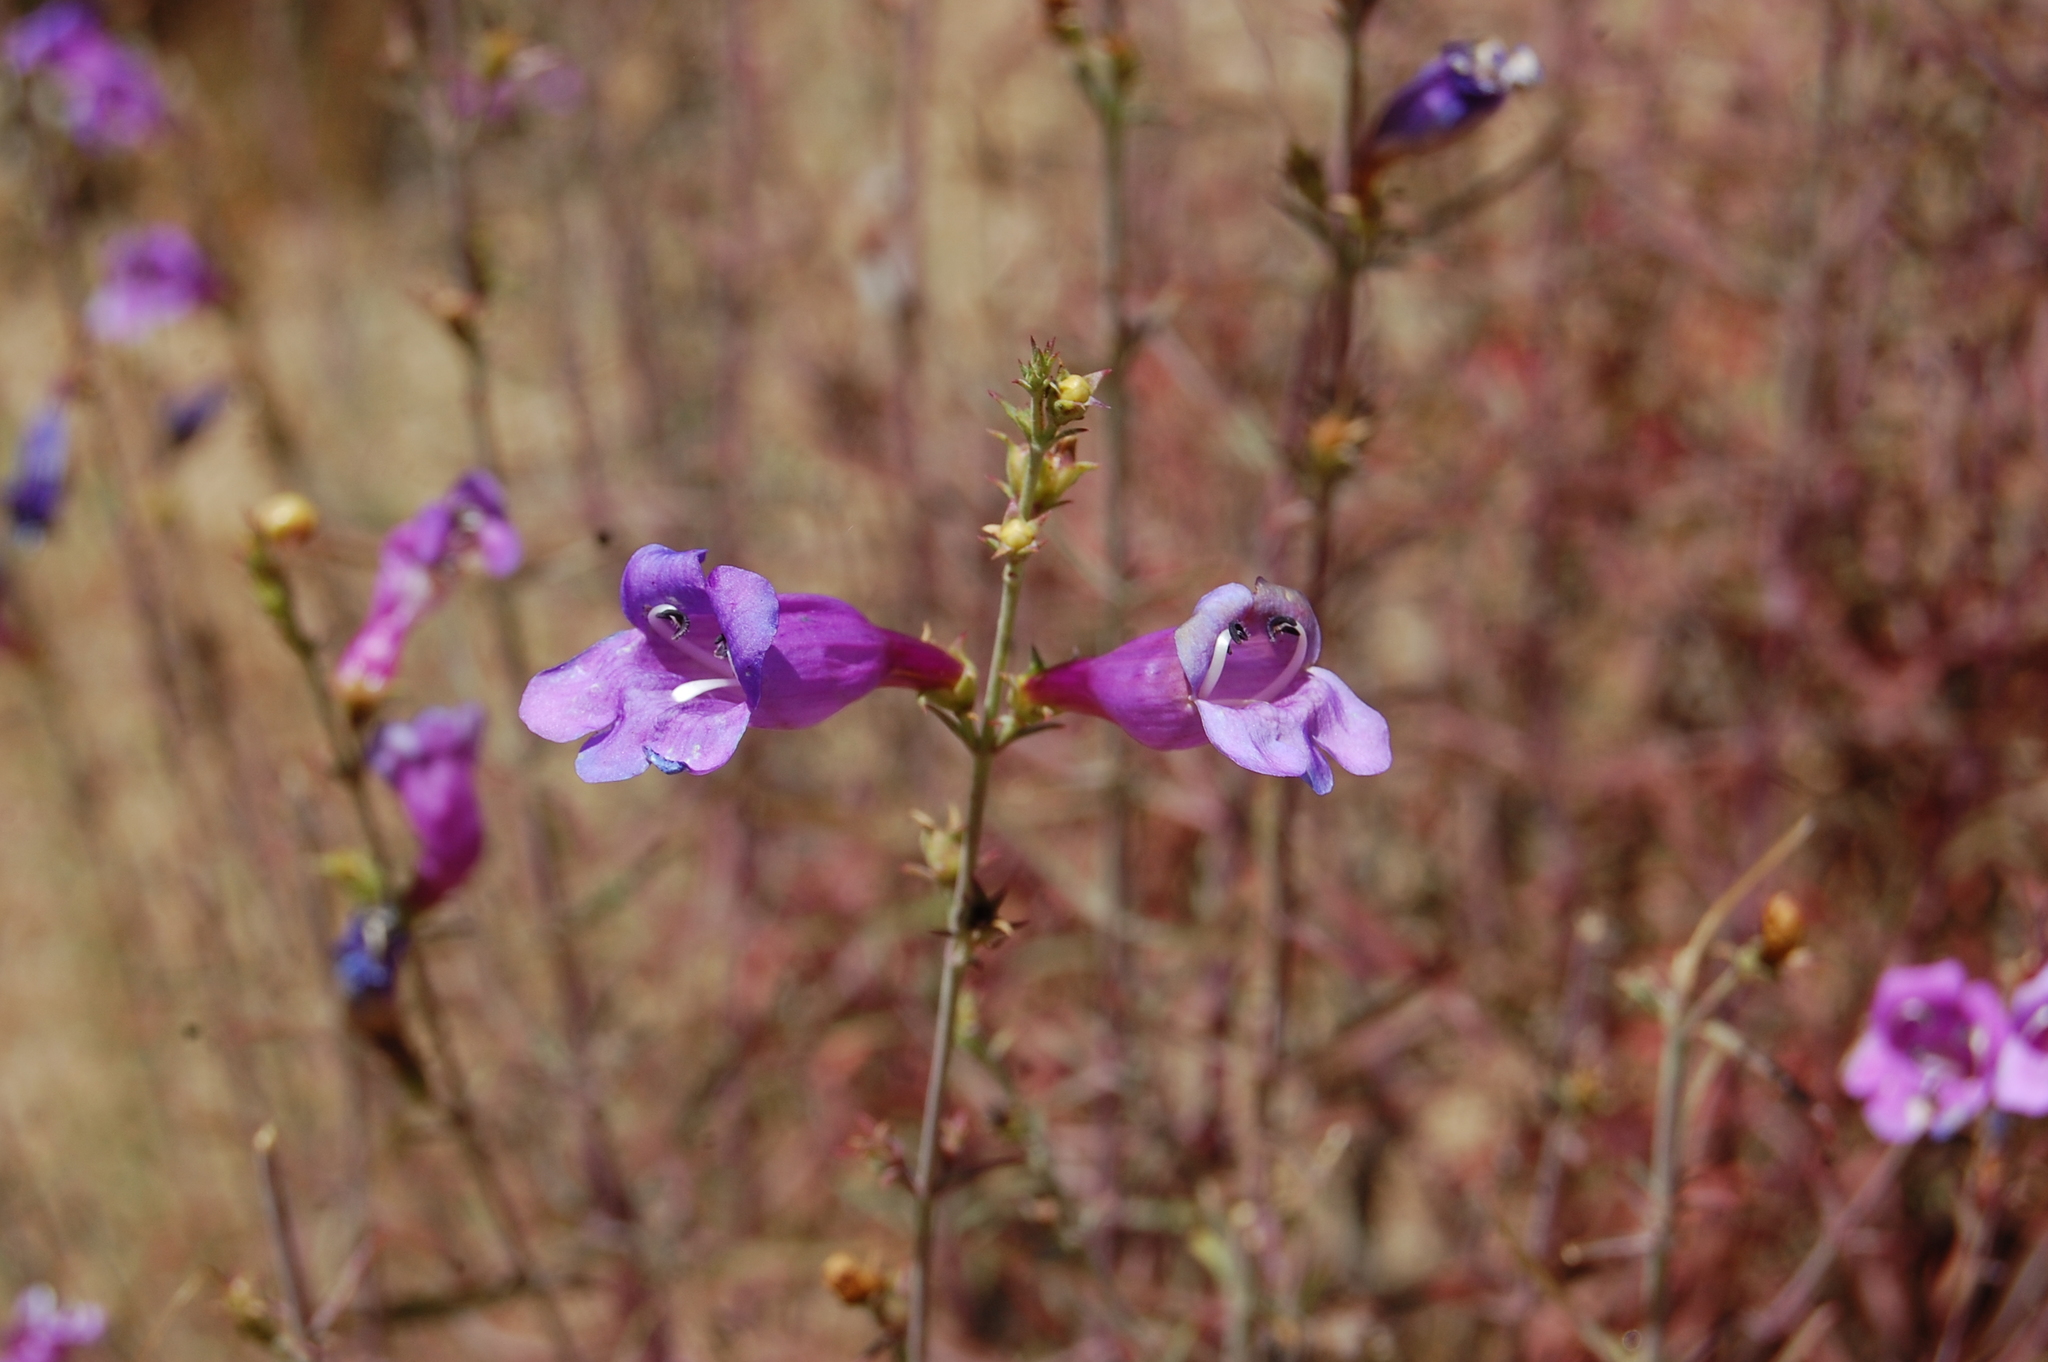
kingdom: Plantae
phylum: Tracheophyta
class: Magnoliopsida
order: Lamiales
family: Plantaginaceae
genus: Penstemon
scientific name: Penstemon heterophyllus
